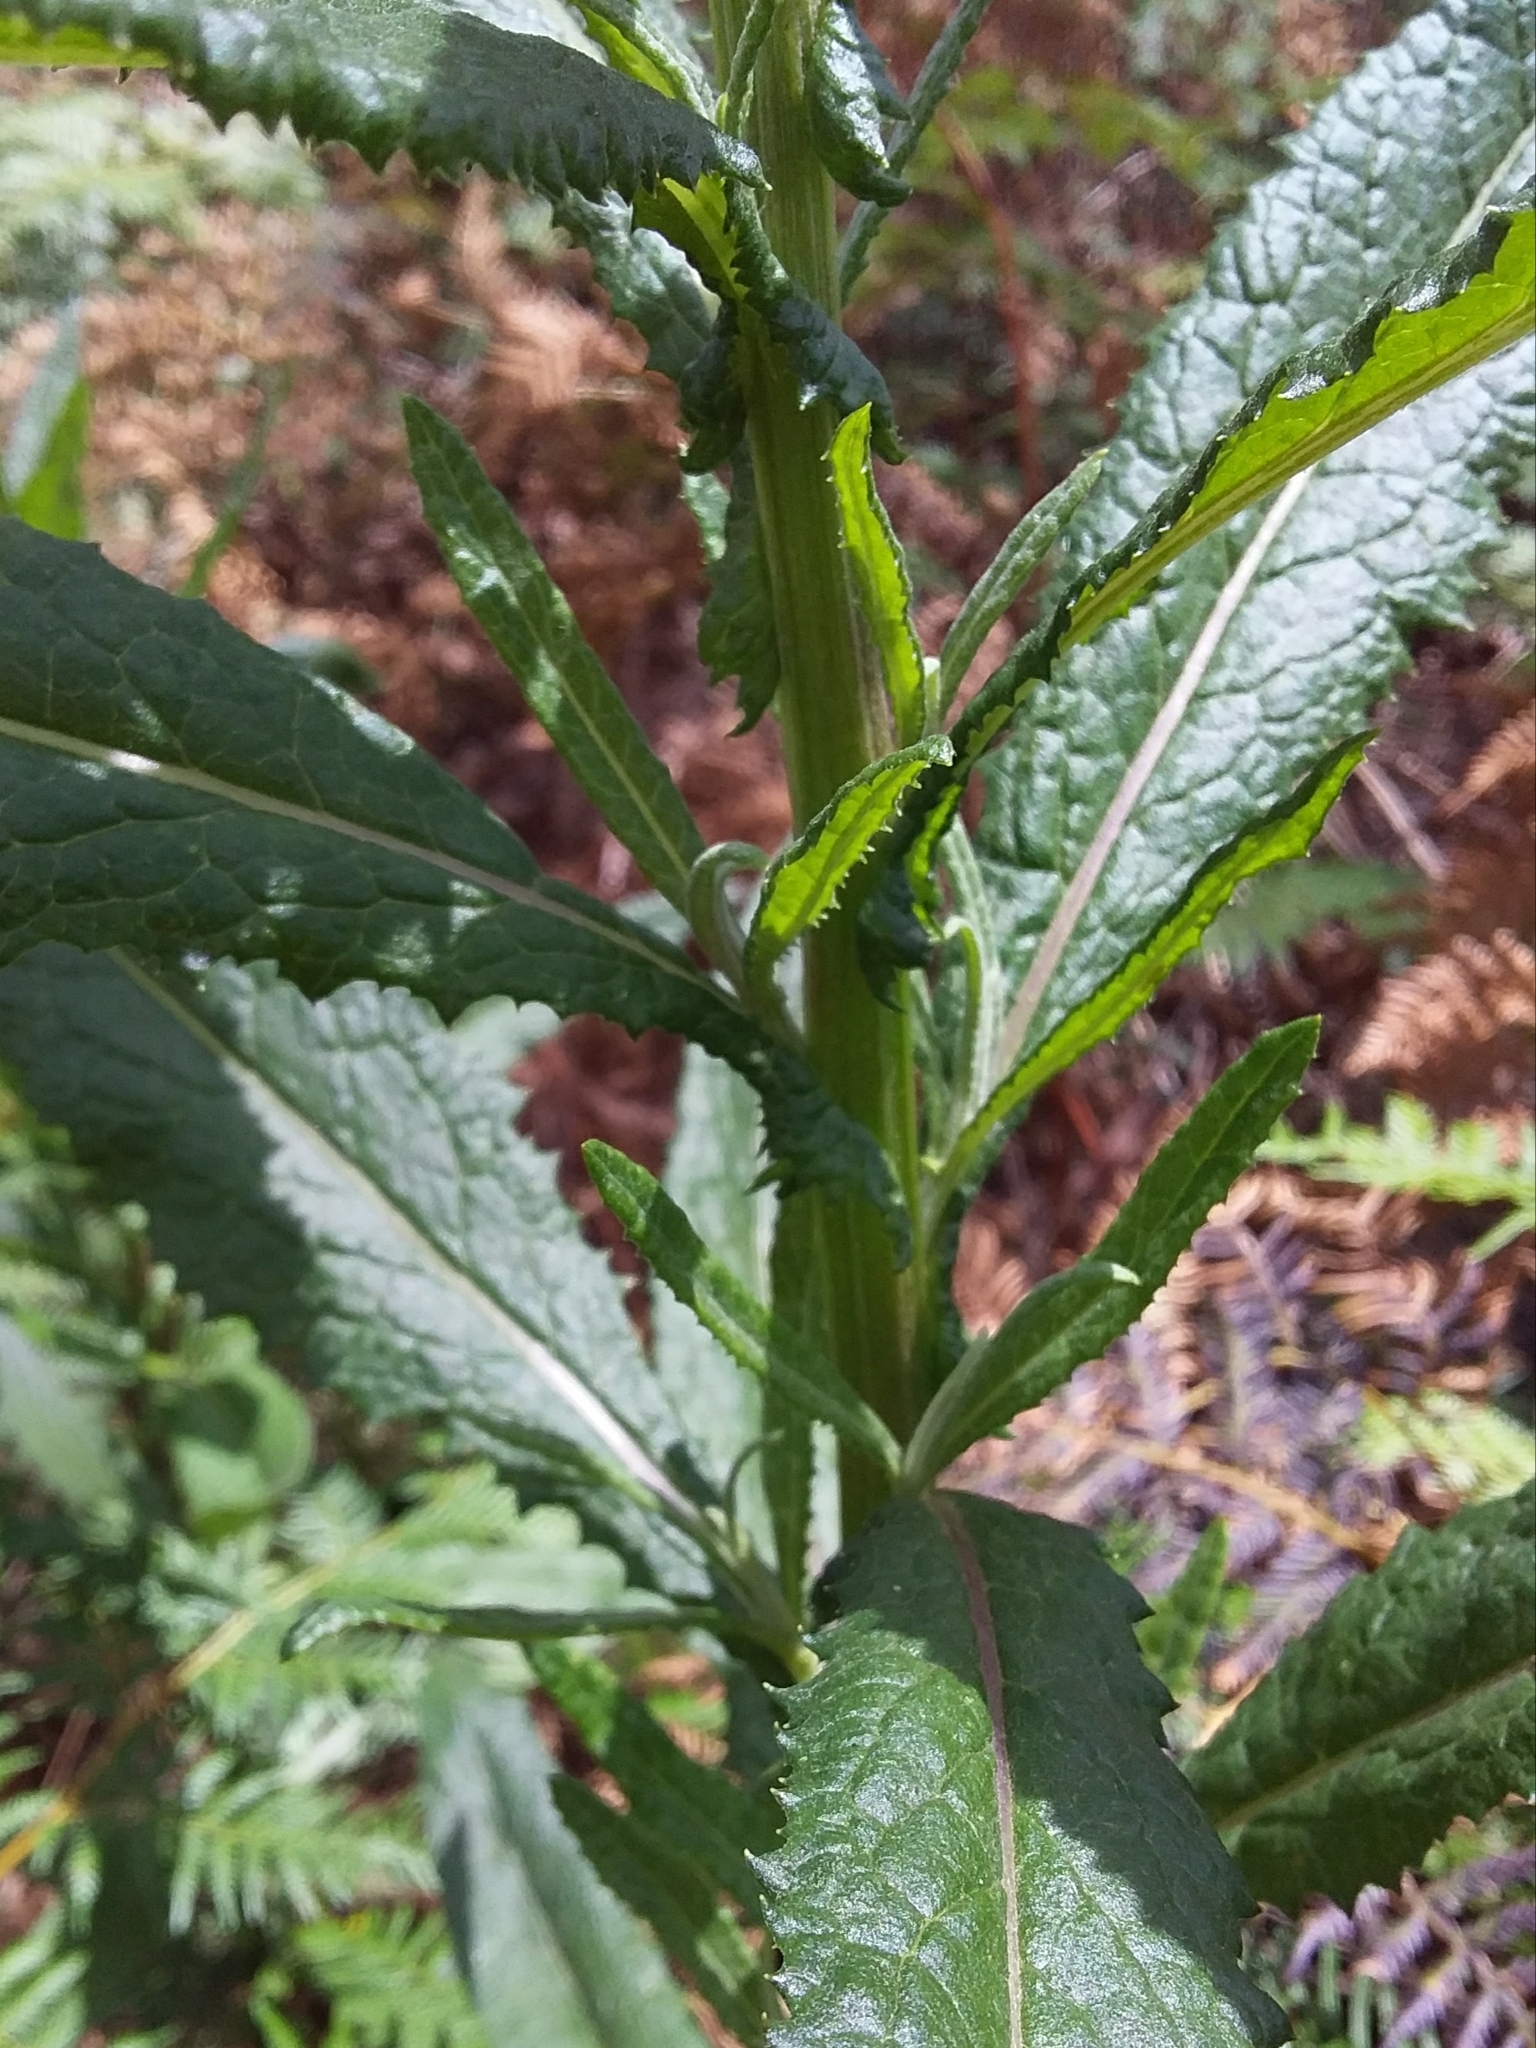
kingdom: Plantae
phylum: Tracheophyta
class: Magnoliopsida
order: Asterales
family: Asteraceae
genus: Senecio
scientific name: Senecio minimus
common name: Toothed fireweed
